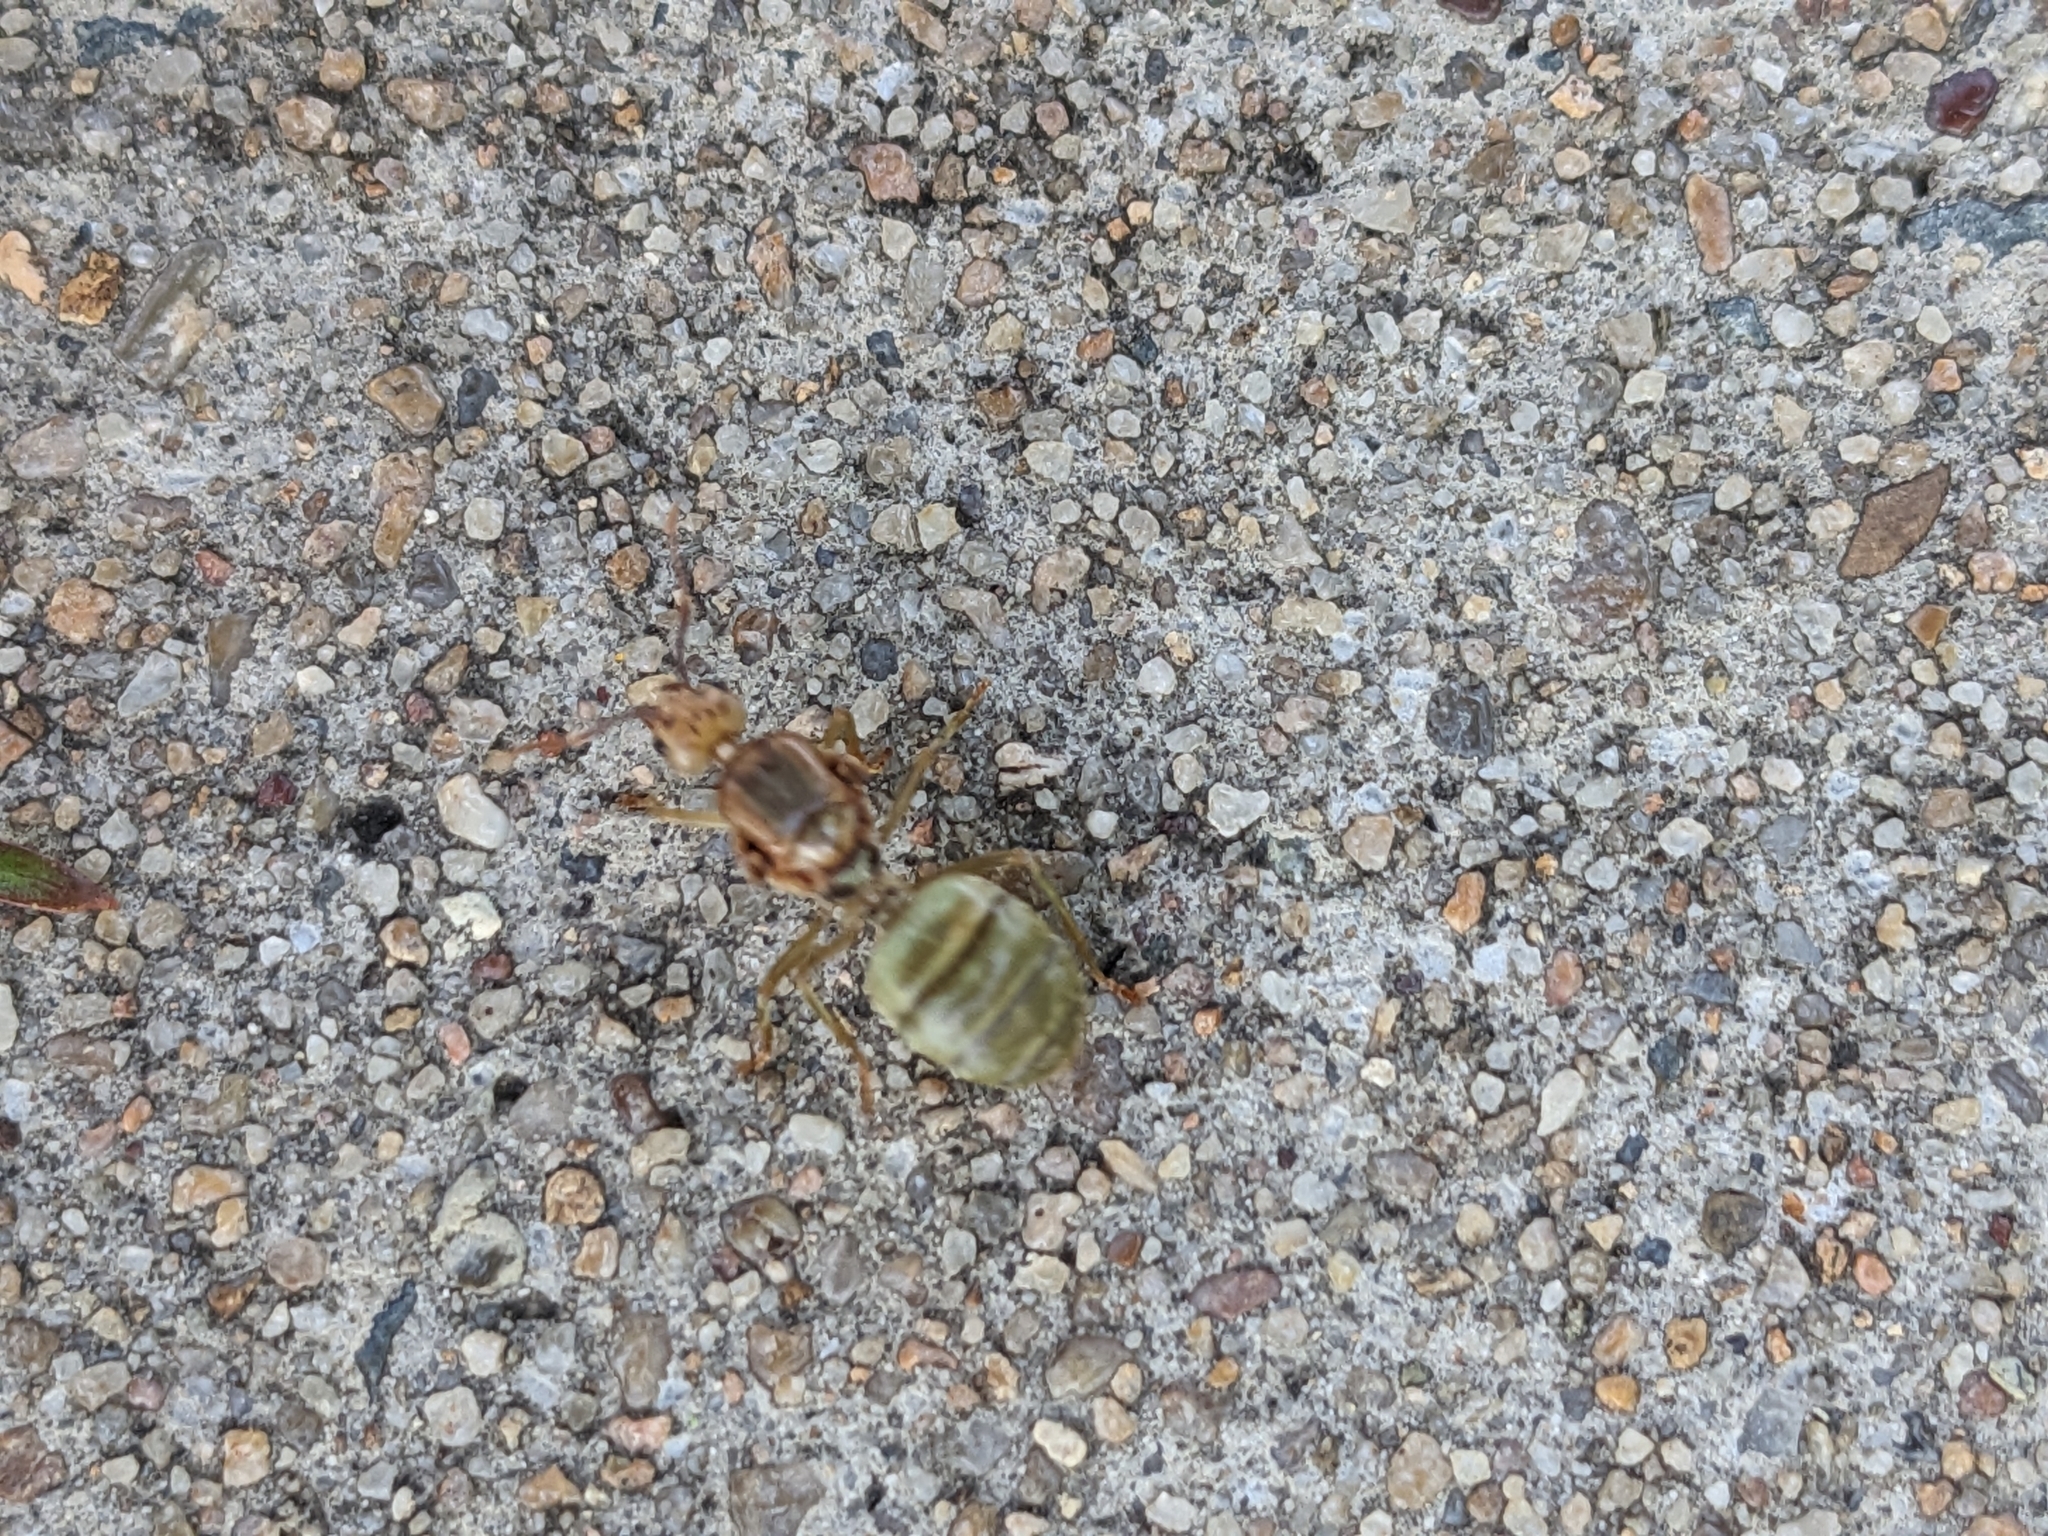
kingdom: Animalia
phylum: Arthropoda
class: Insecta
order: Hymenoptera
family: Formicidae
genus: Oecophylla
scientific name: Oecophylla smaragdina
